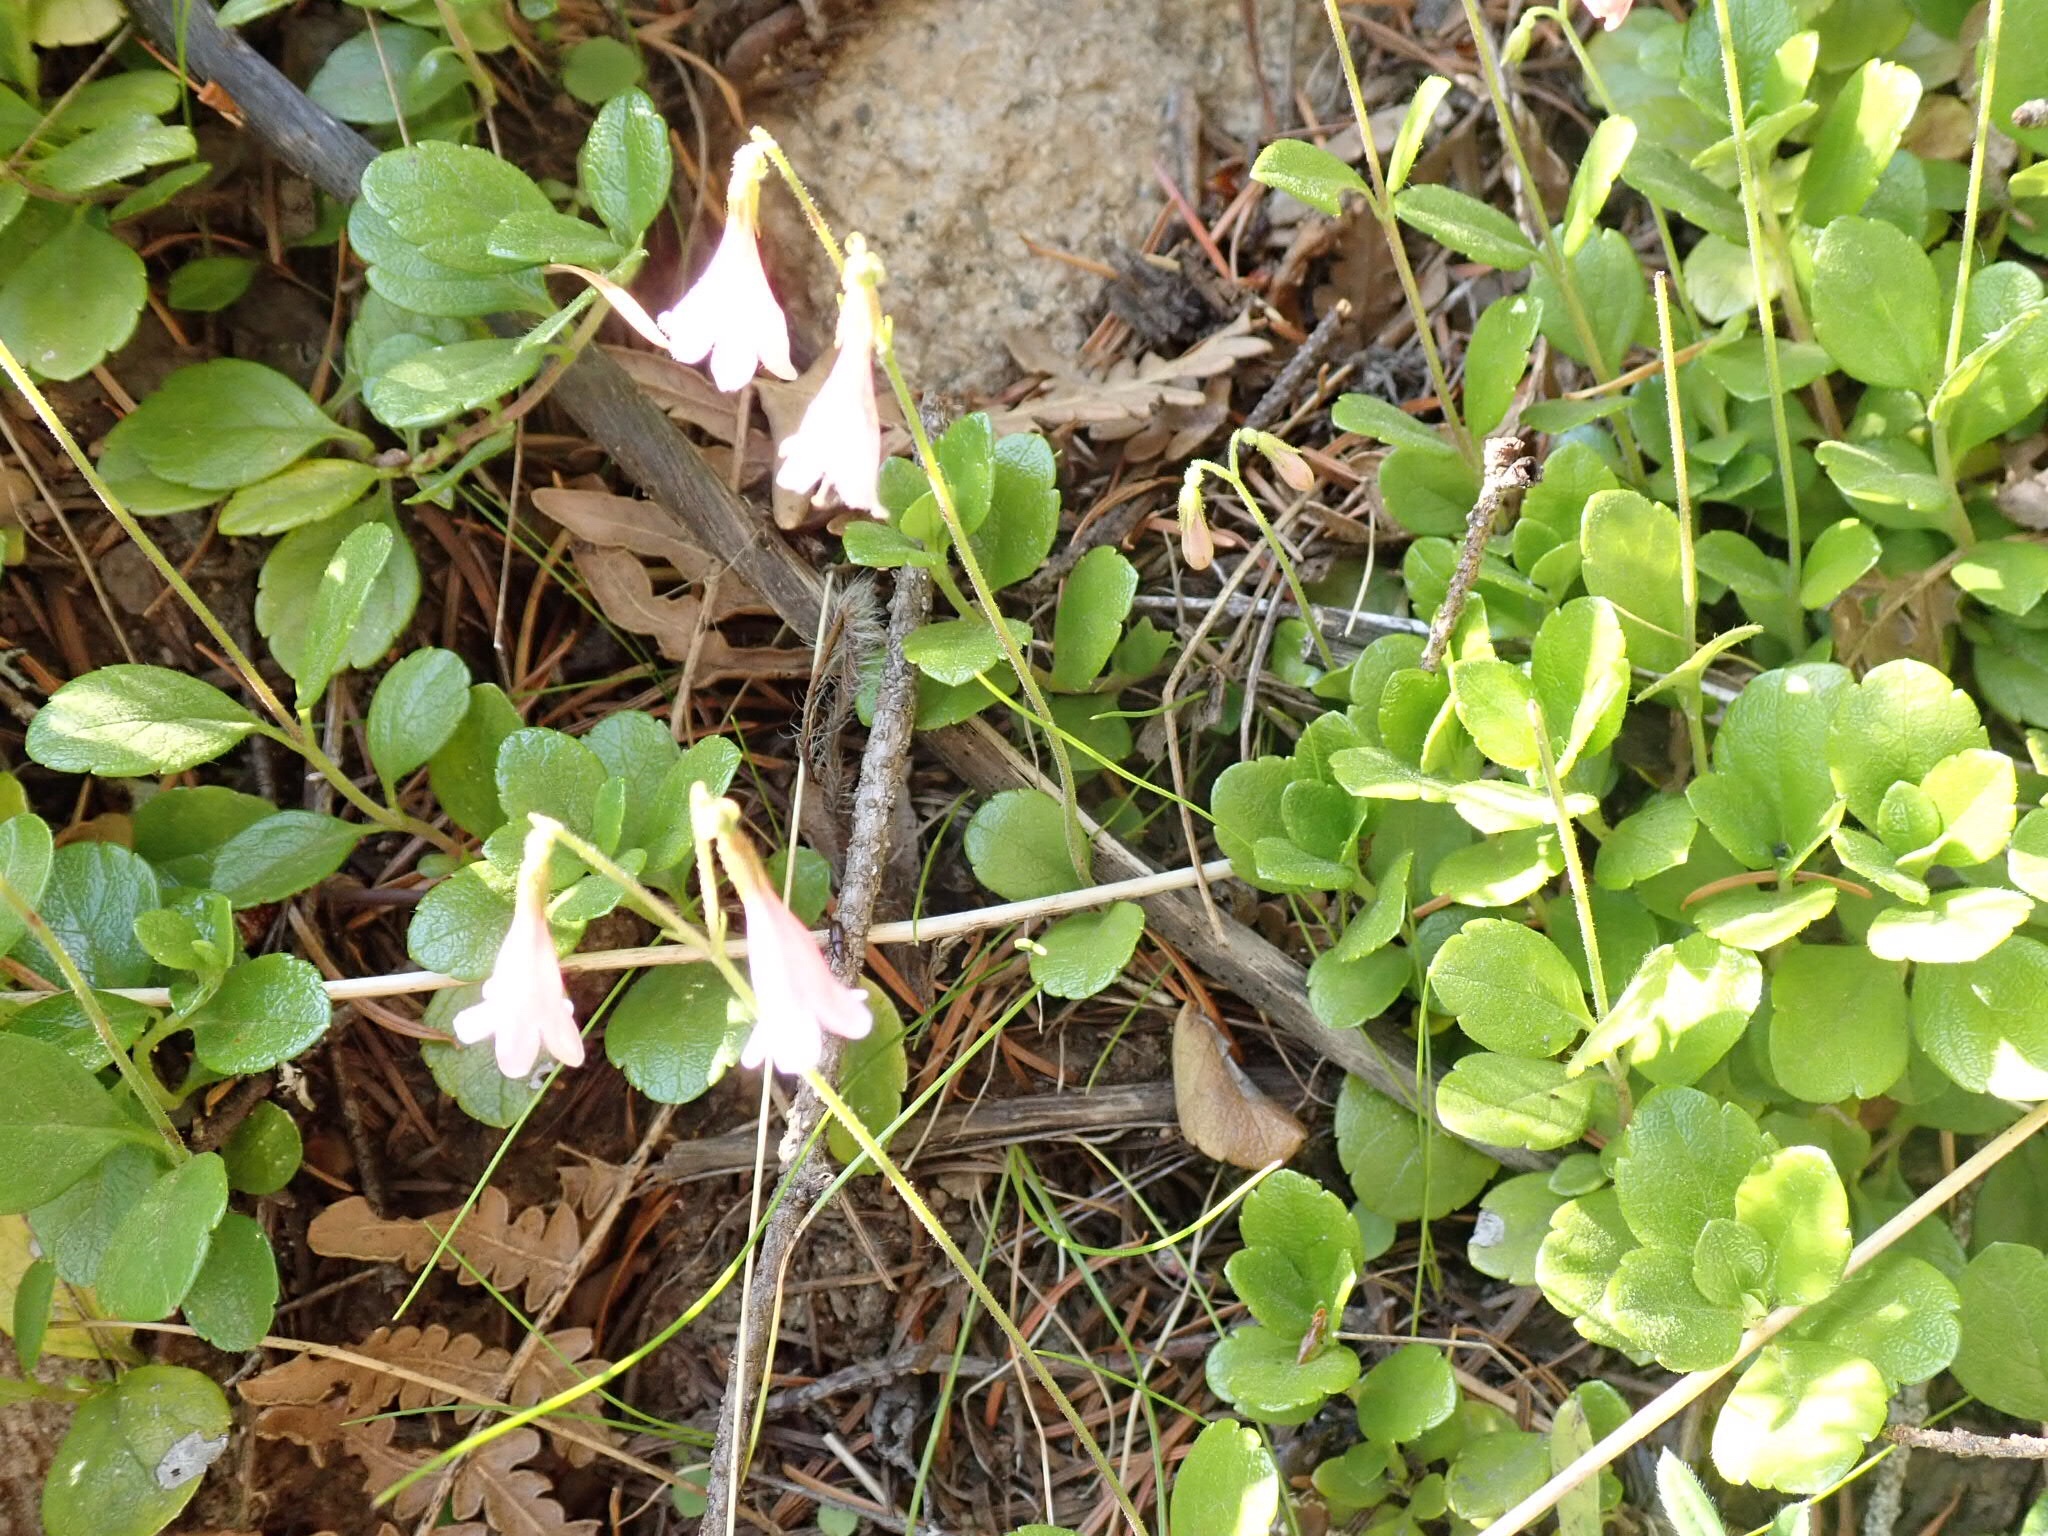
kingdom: Plantae
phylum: Tracheophyta
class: Magnoliopsida
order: Dipsacales
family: Caprifoliaceae
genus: Linnaea
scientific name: Linnaea borealis
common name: Twinflower
